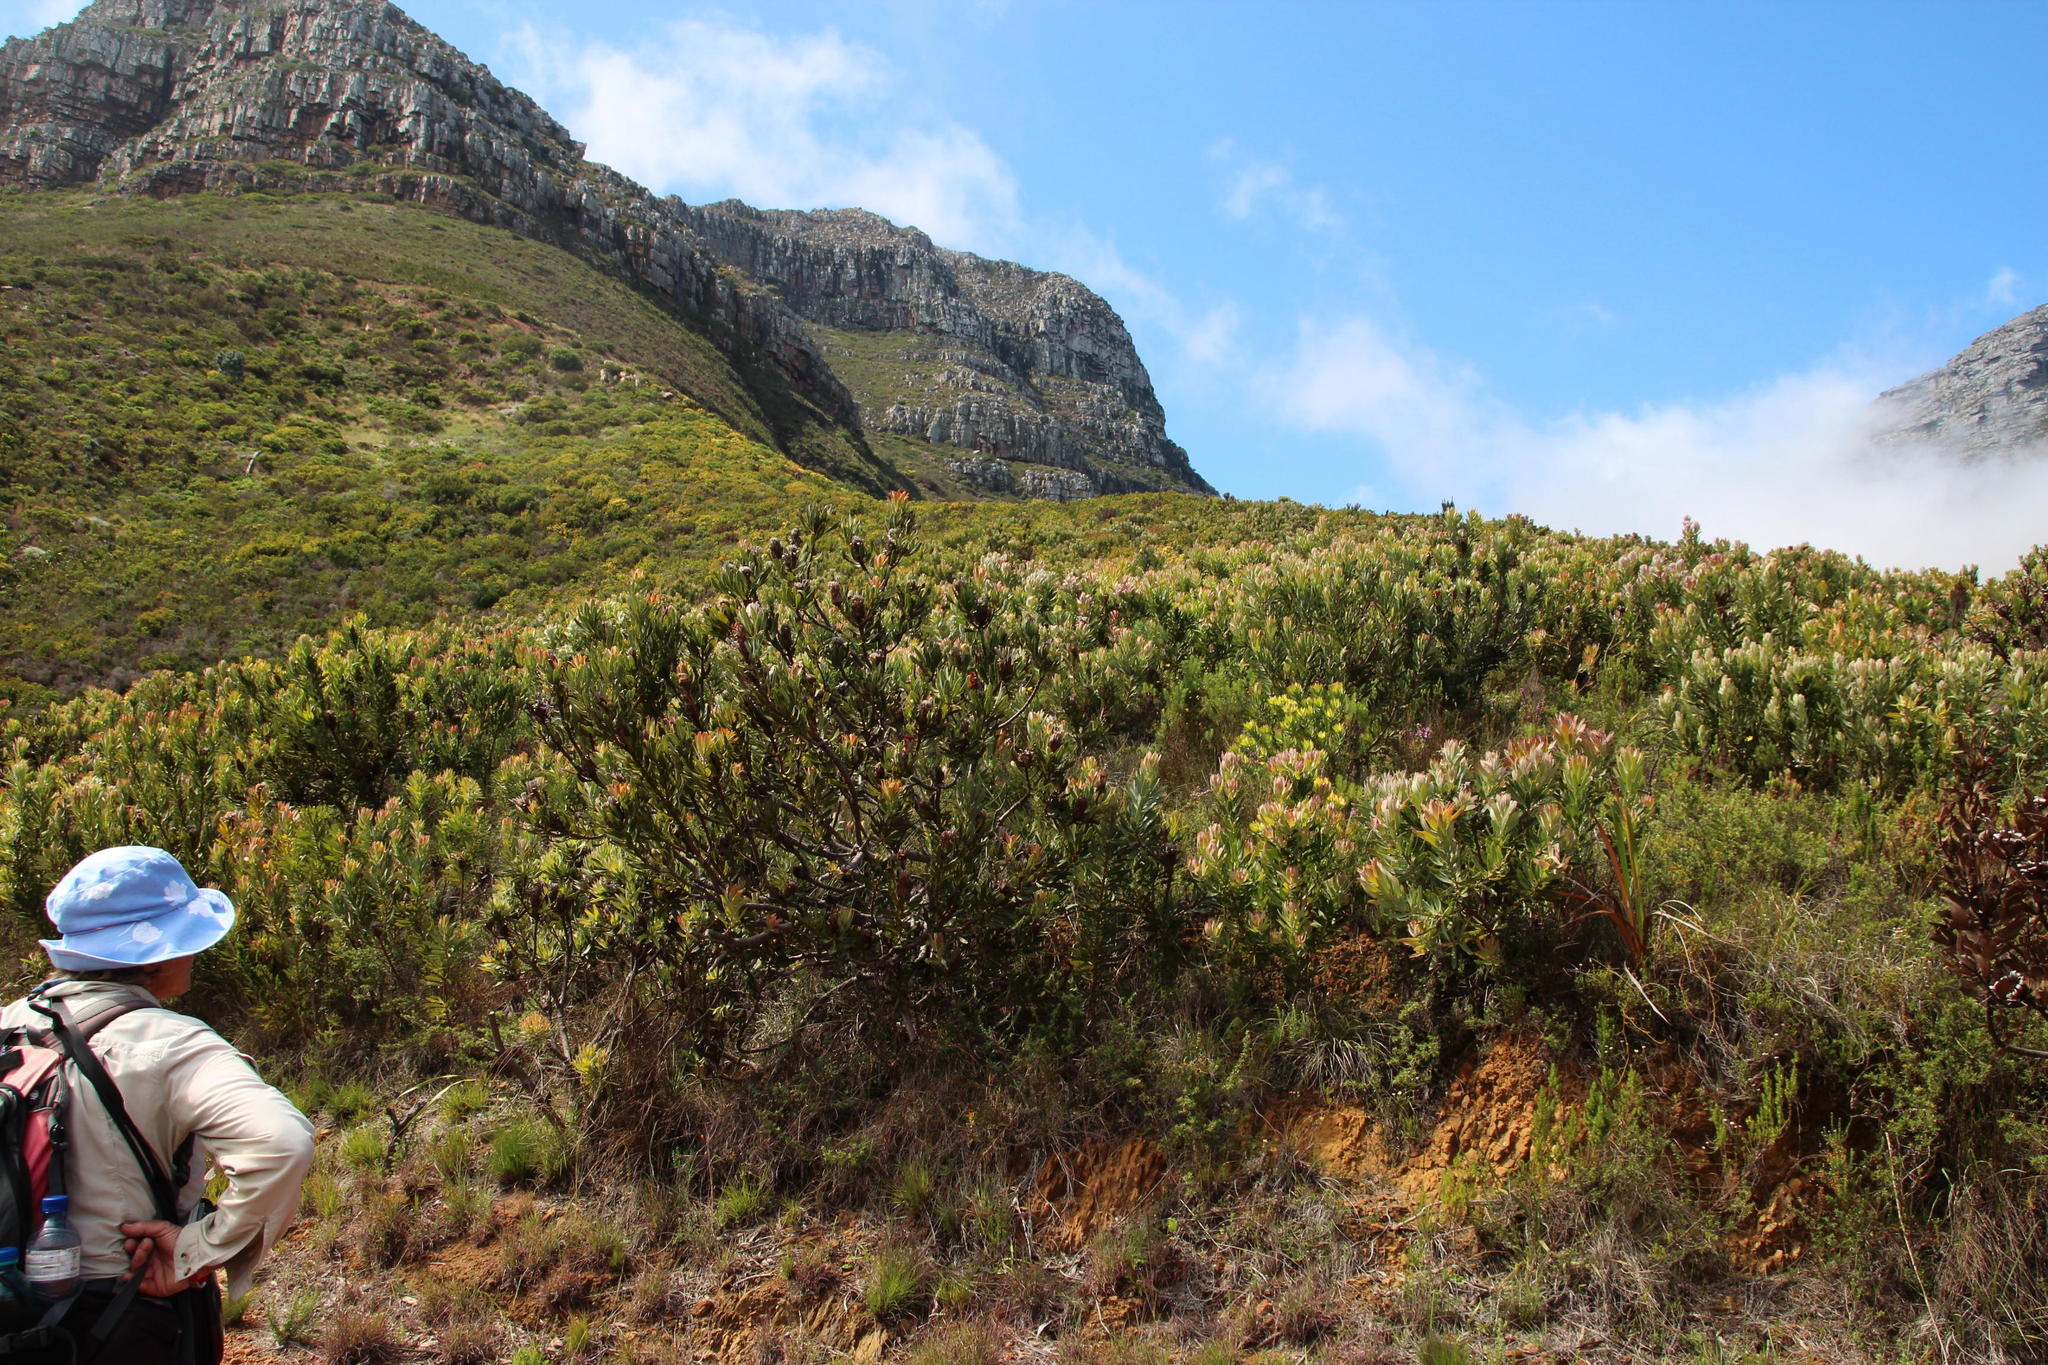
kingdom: Plantae
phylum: Tracheophyta
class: Magnoliopsida
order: Proteales
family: Proteaceae
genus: Protea
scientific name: Protea neriifolia
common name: Blue sugarbush
